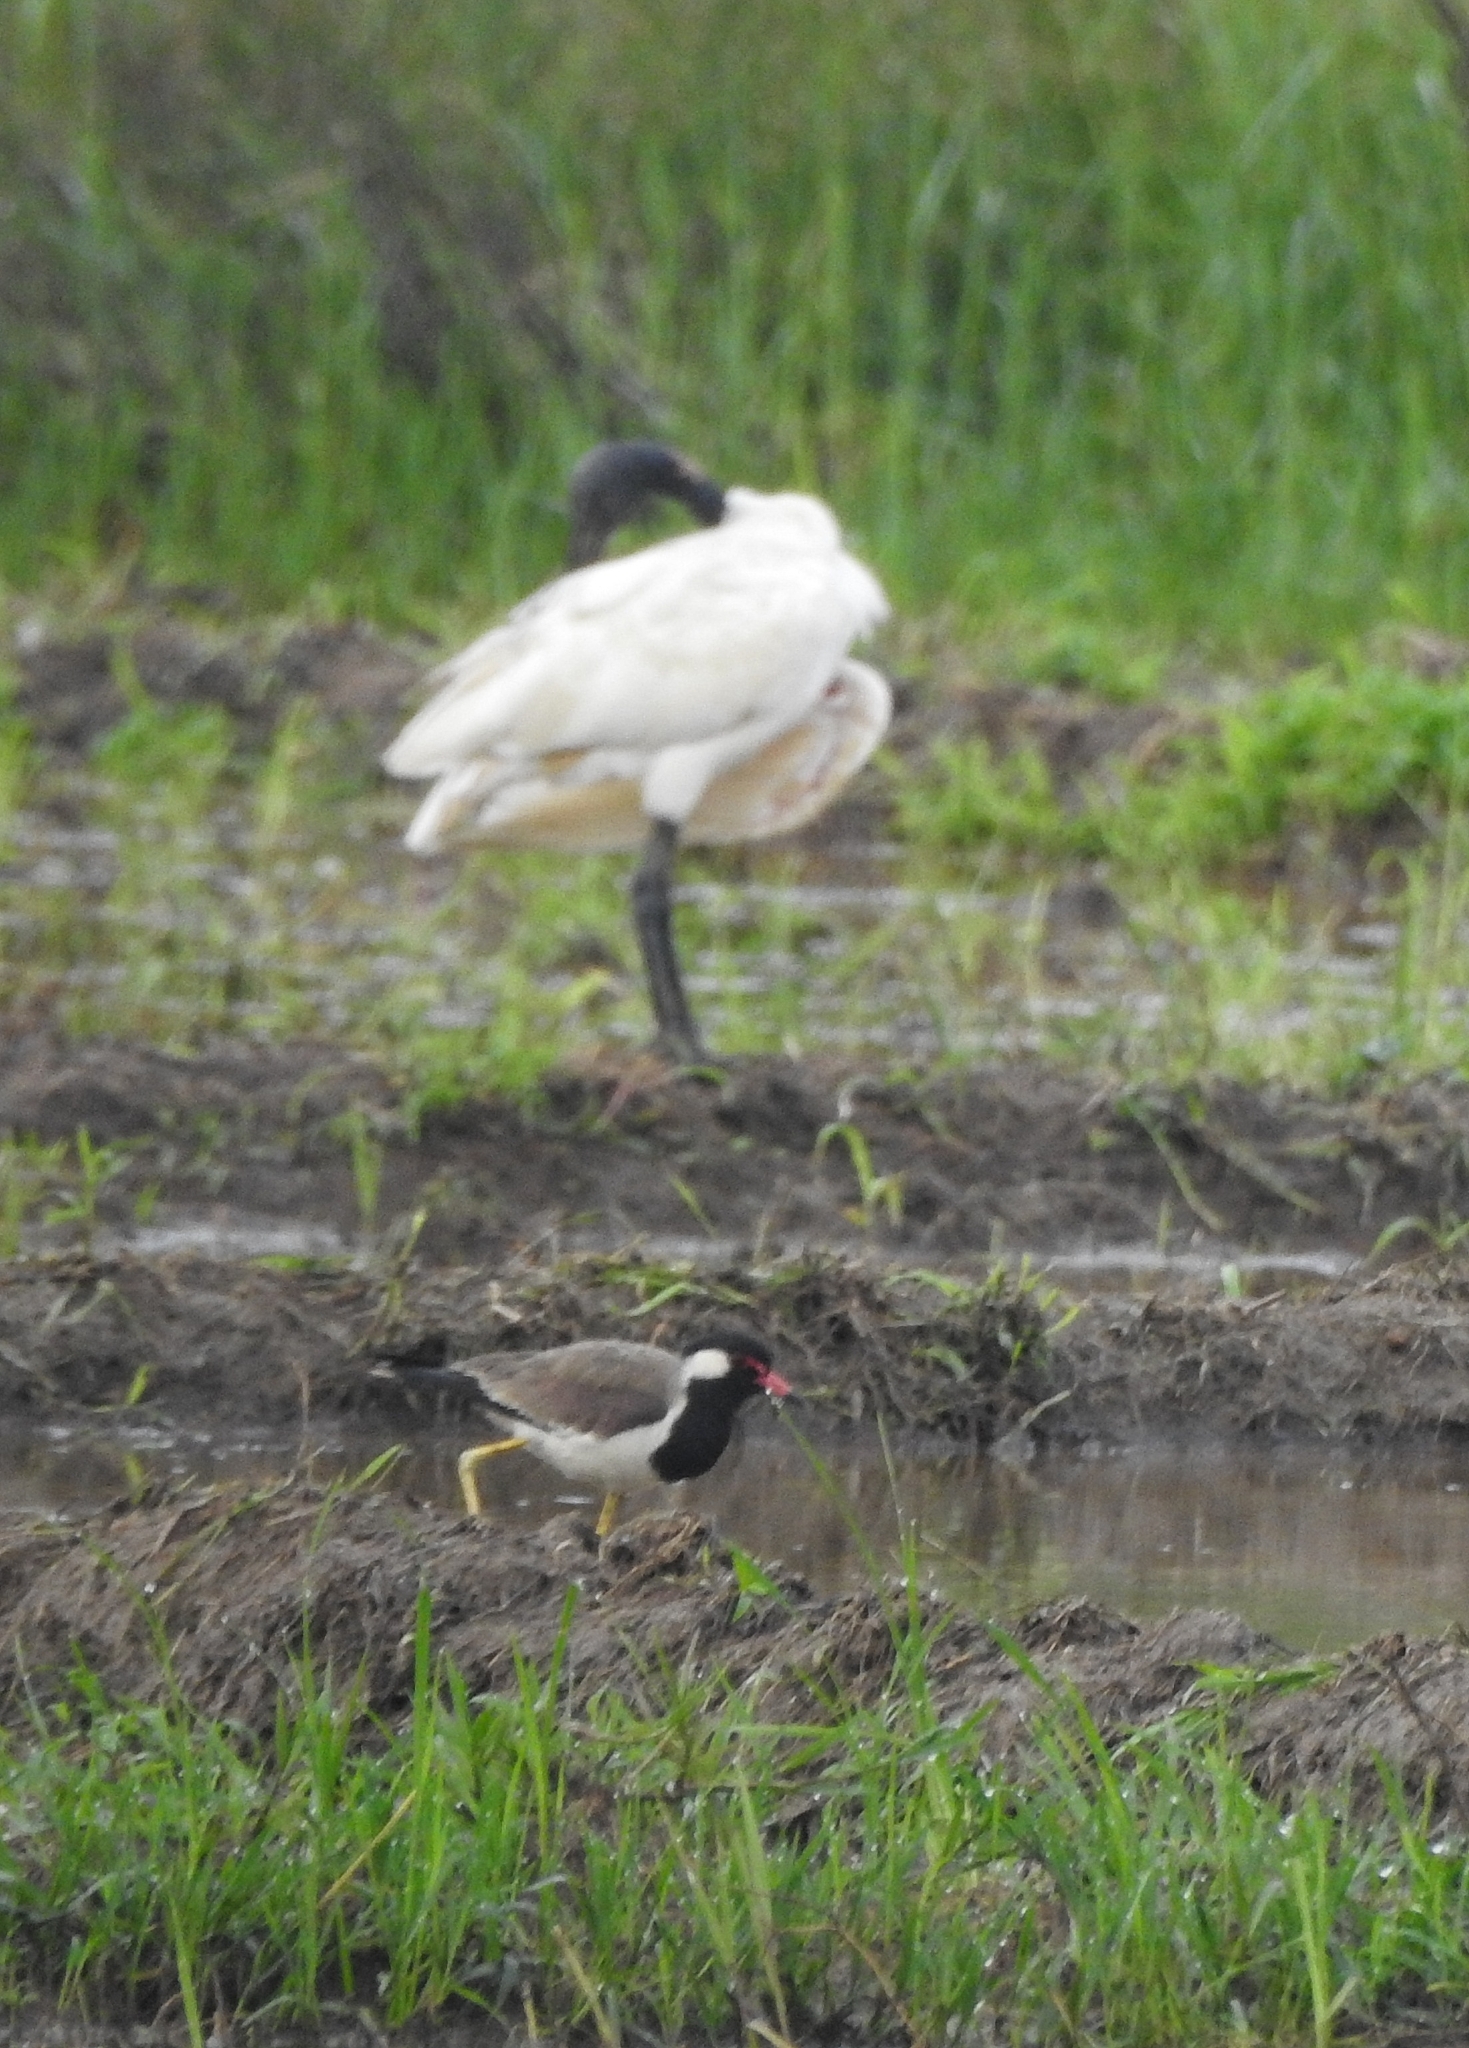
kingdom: Animalia
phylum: Chordata
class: Aves
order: Charadriiformes
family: Charadriidae
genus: Vanellus
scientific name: Vanellus indicus
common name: Red-wattled lapwing
